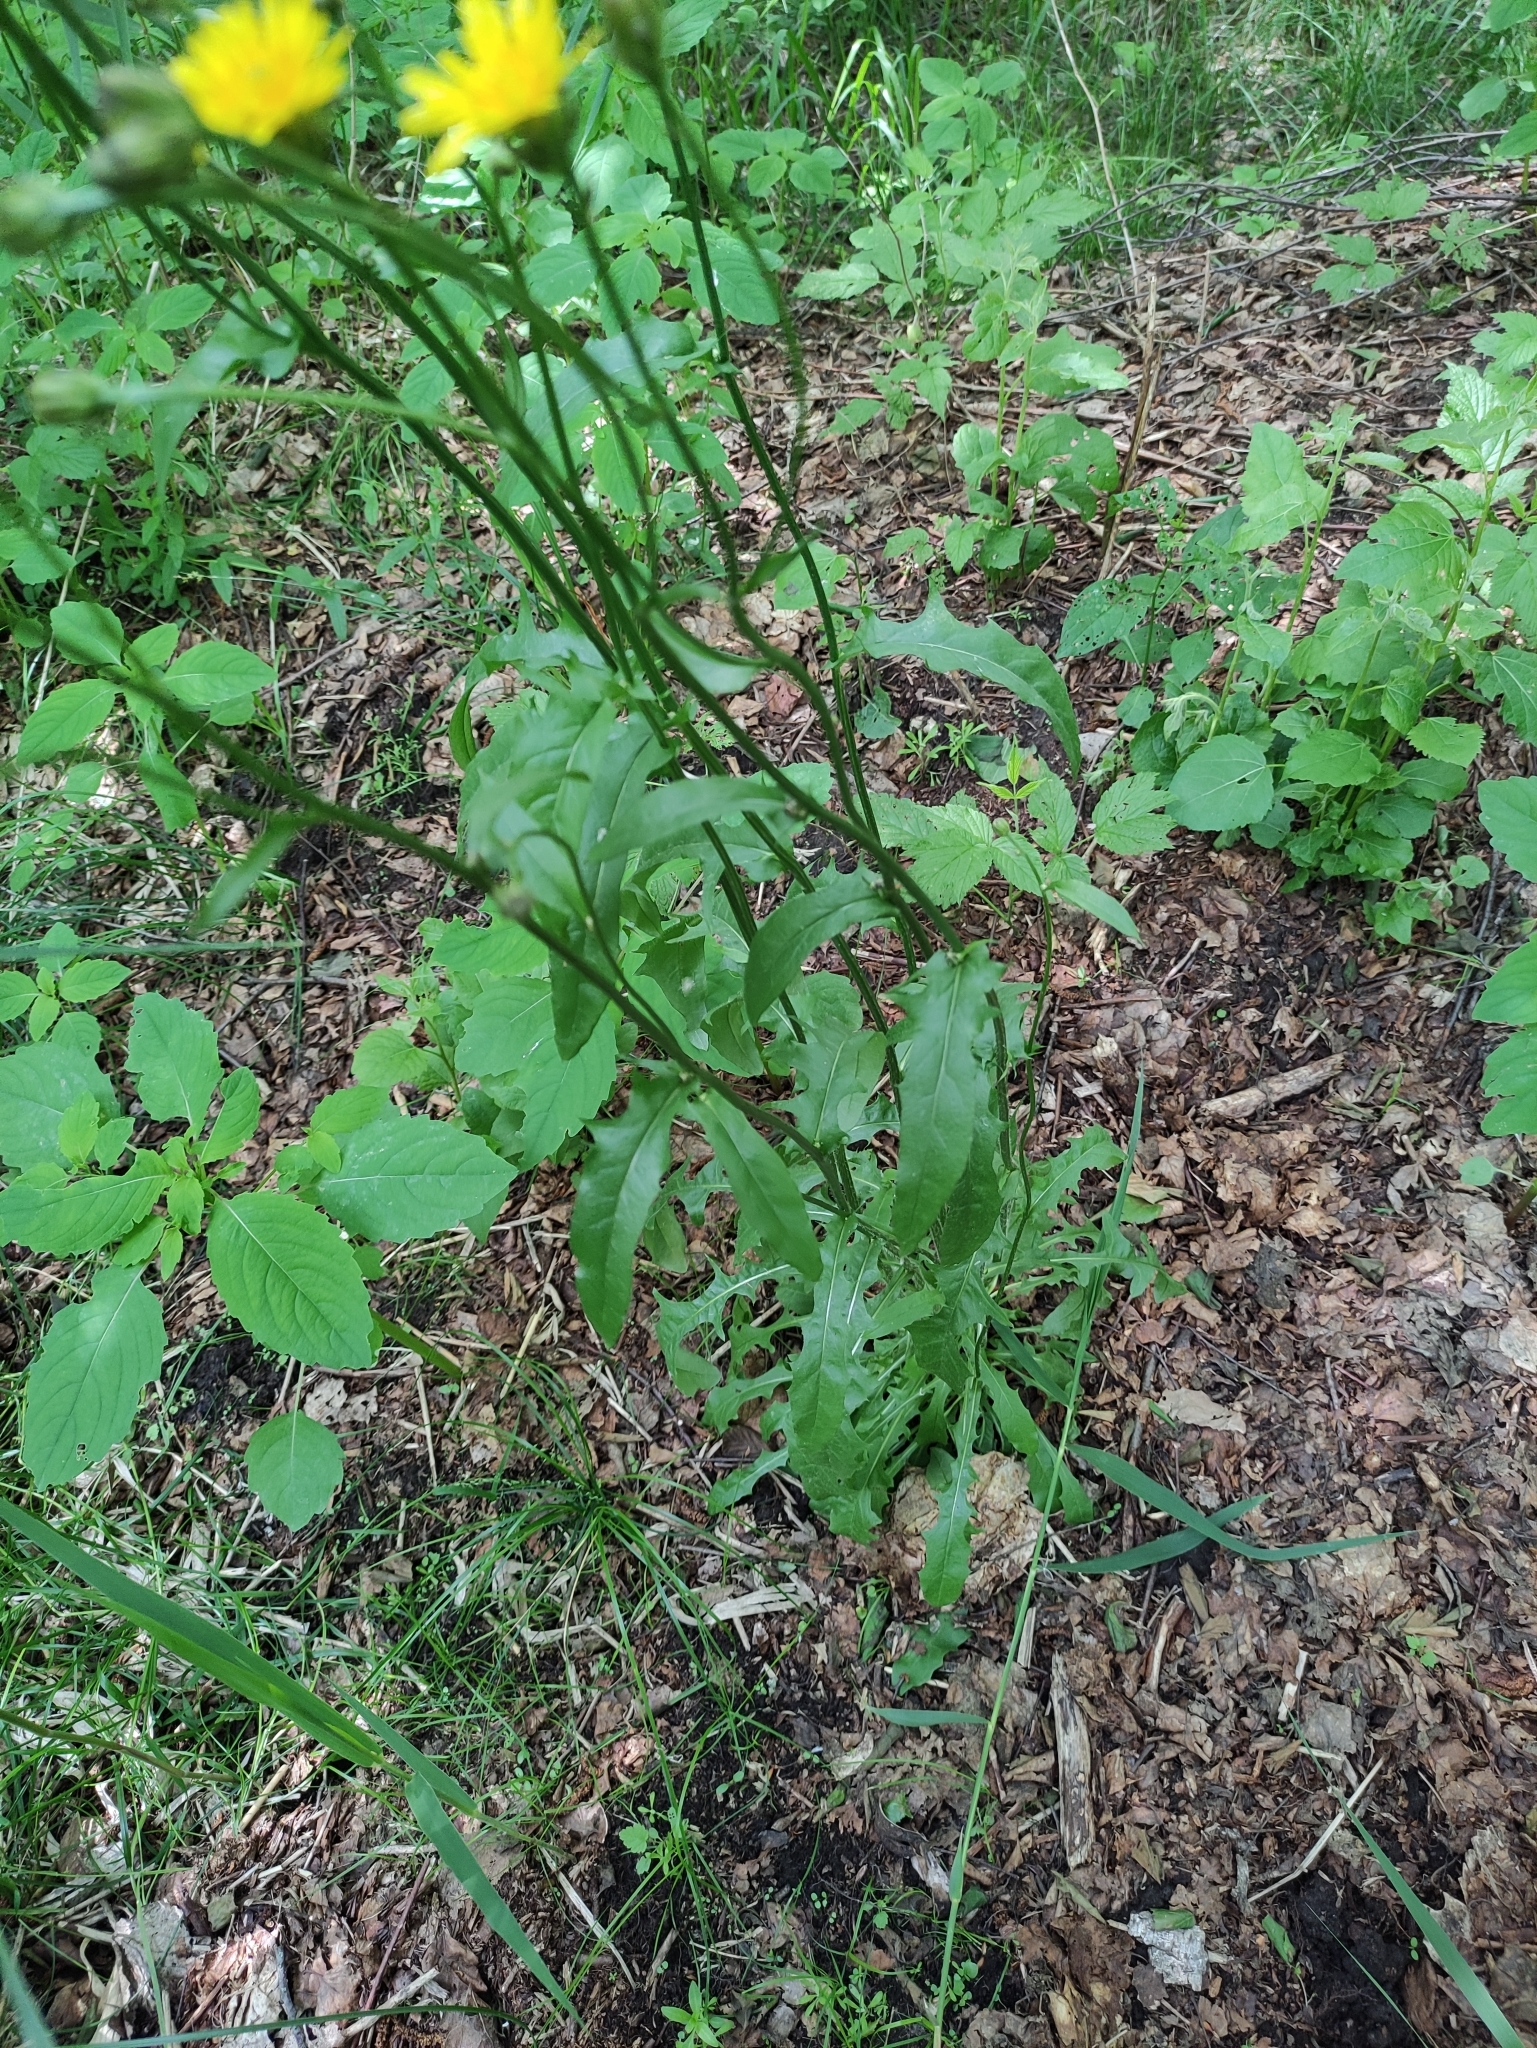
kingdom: Plantae
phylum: Tracheophyta
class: Magnoliopsida
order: Asterales
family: Asteraceae
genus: Crepis
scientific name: Crepis biennis
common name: Rough hawk's-beard
